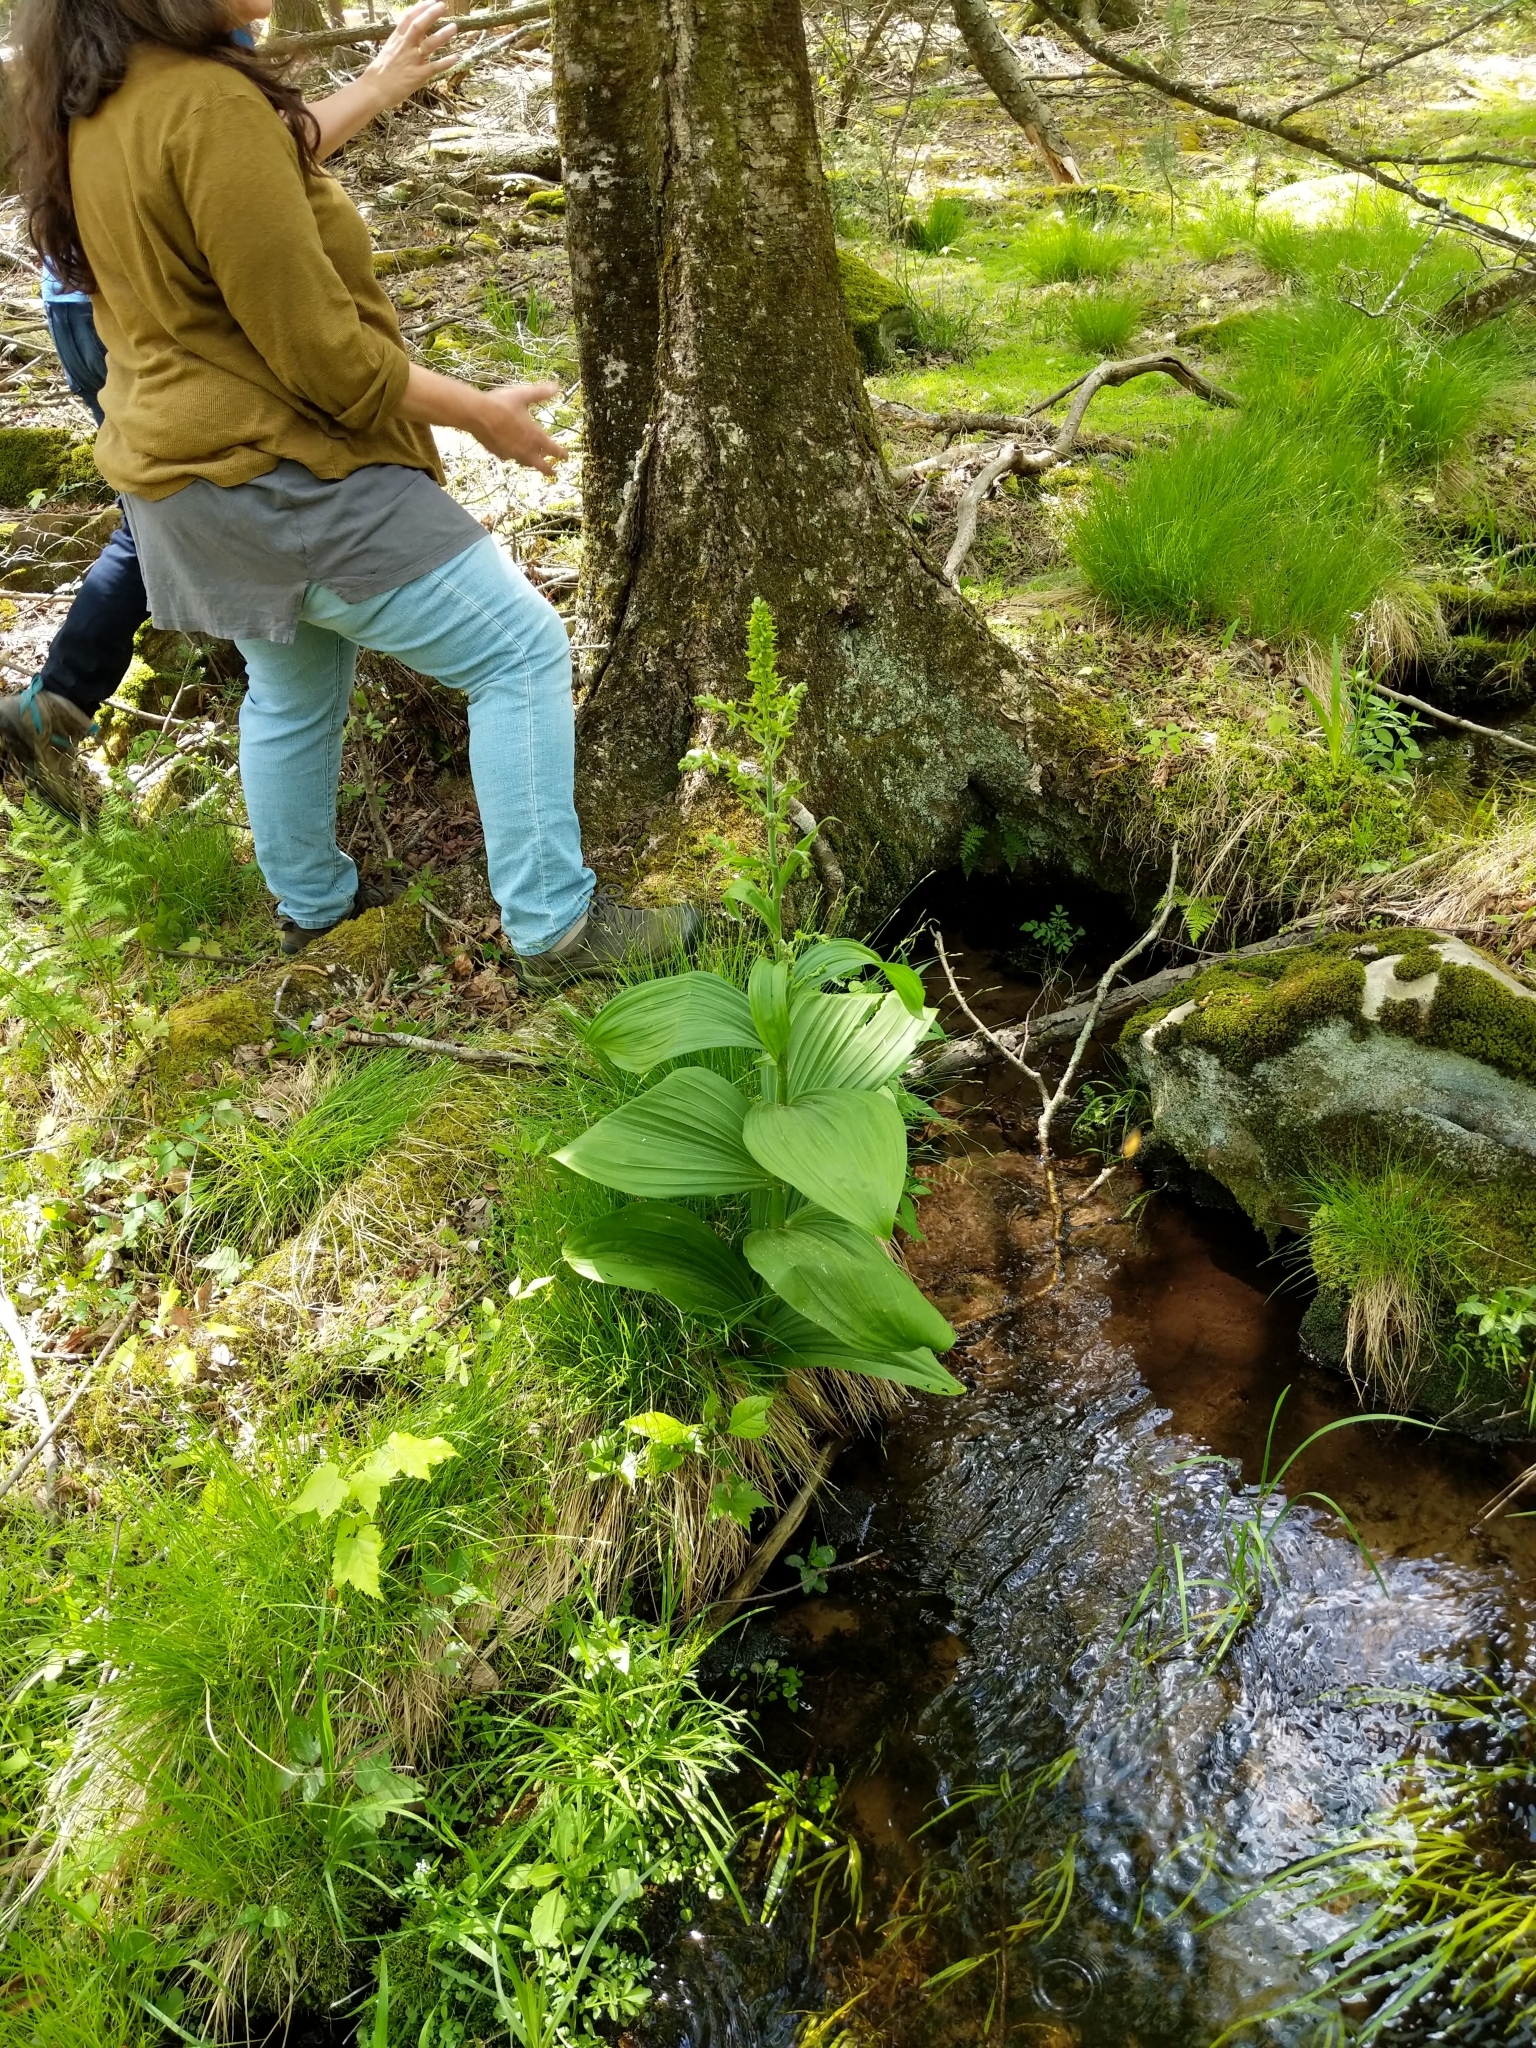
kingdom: Plantae
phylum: Tracheophyta
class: Liliopsida
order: Liliales
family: Melanthiaceae
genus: Veratrum
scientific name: Veratrum viride
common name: American false hellebore
